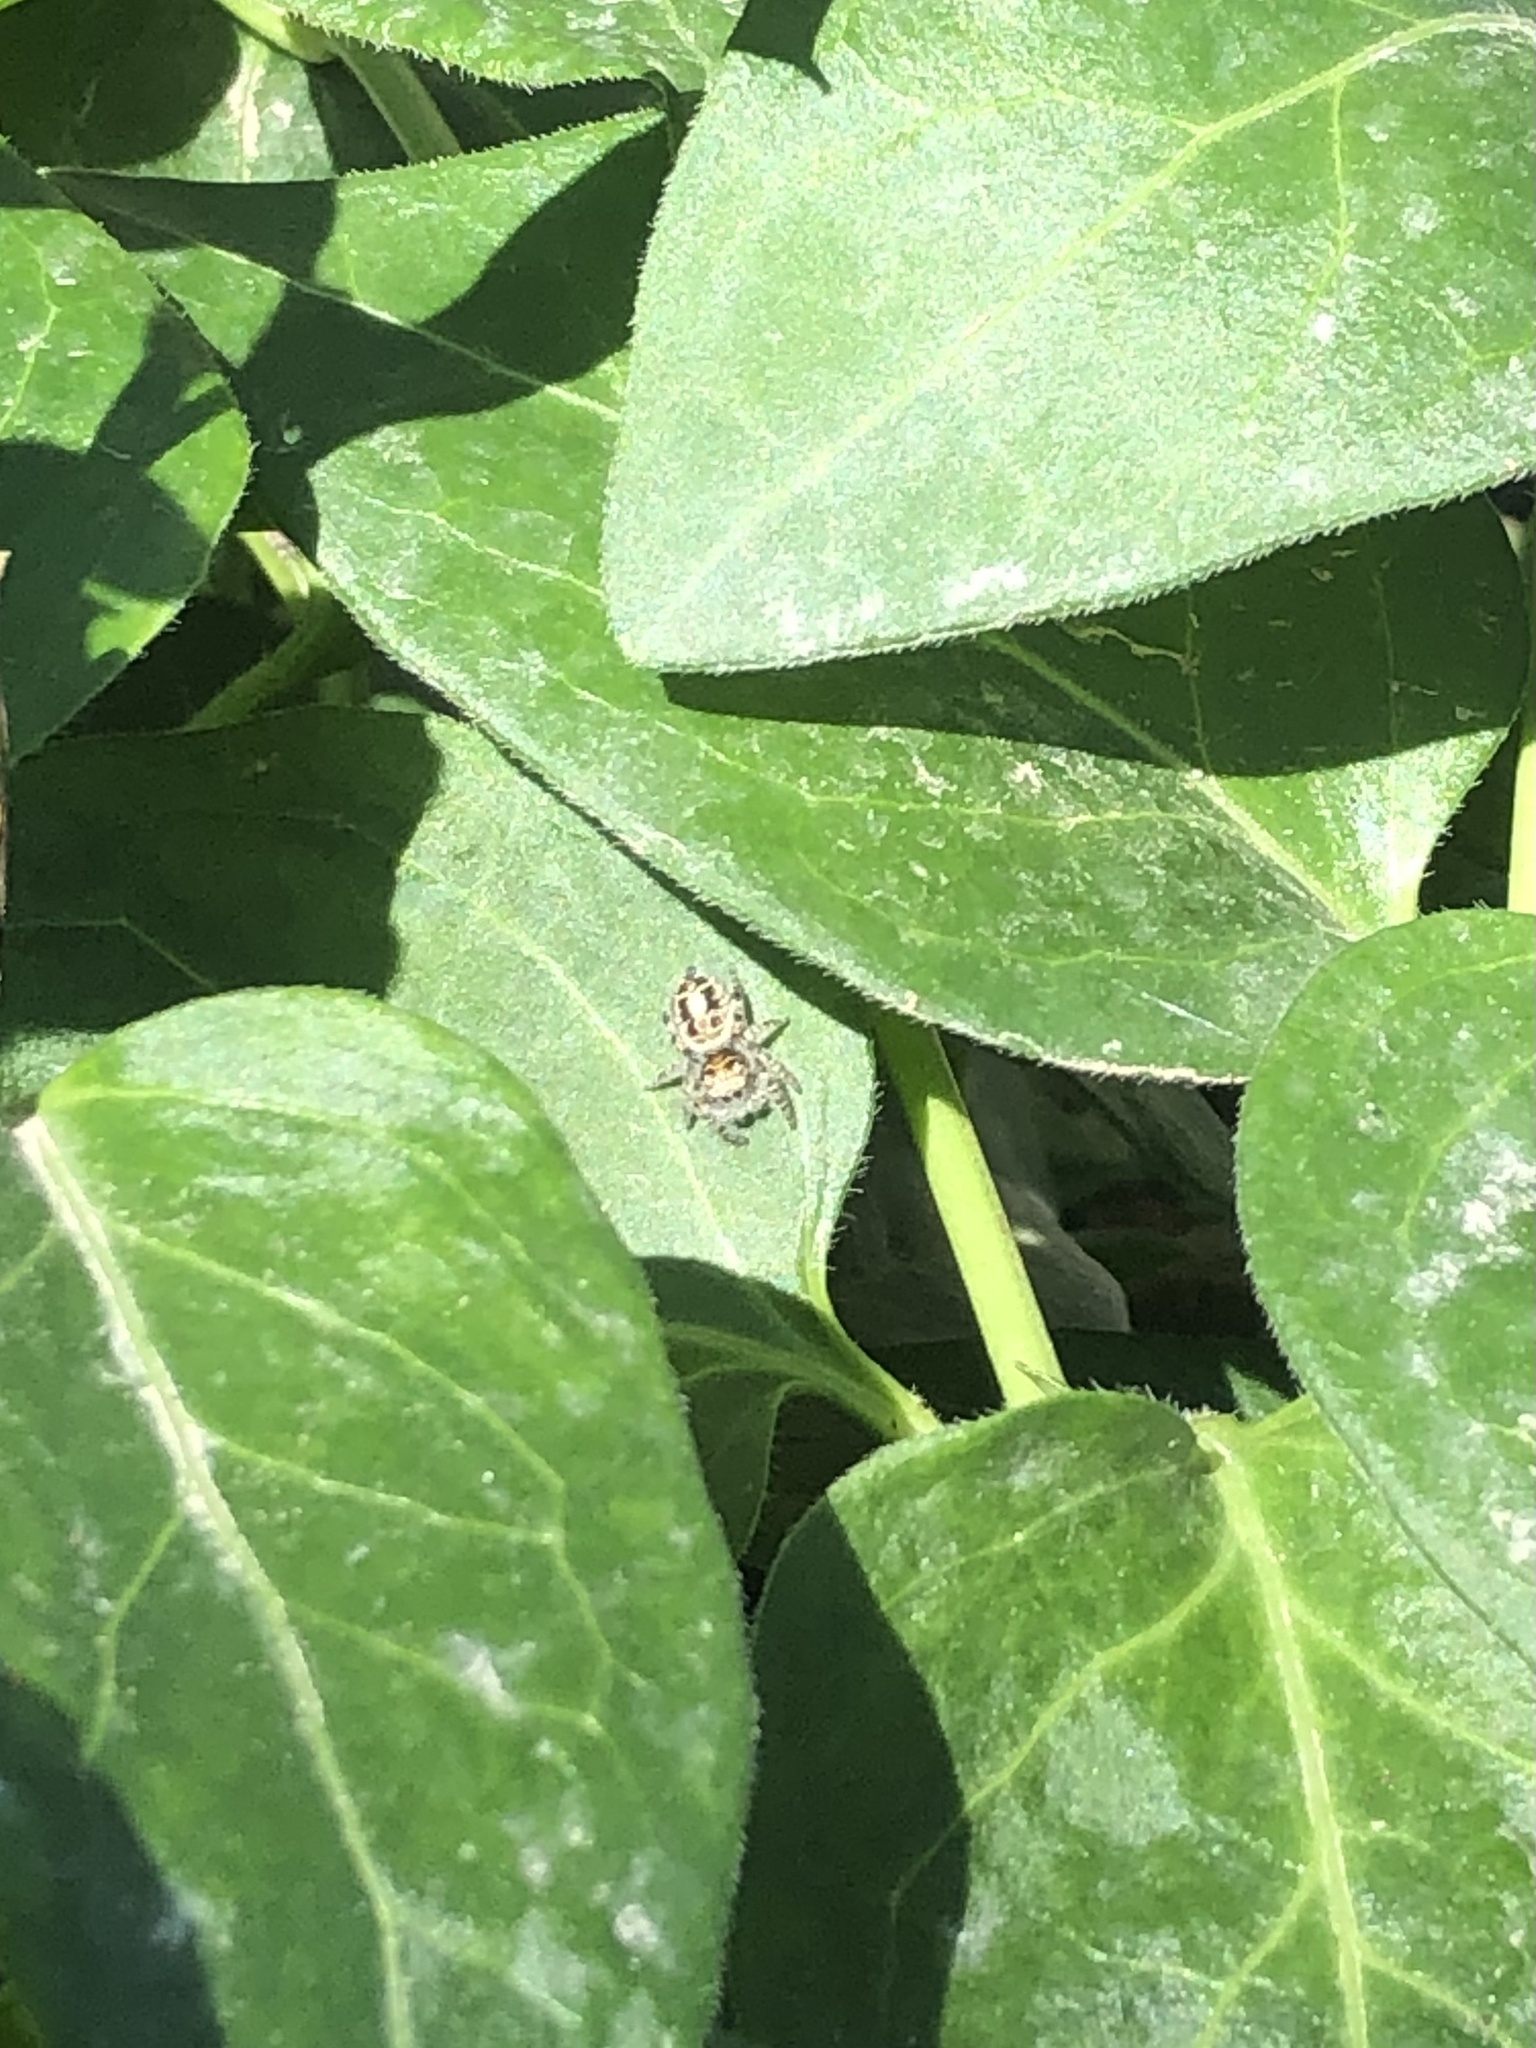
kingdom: Animalia
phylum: Arthropoda
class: Arachnida
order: Araneae
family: Salticidae
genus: Phidippus
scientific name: Phidippus comatus
